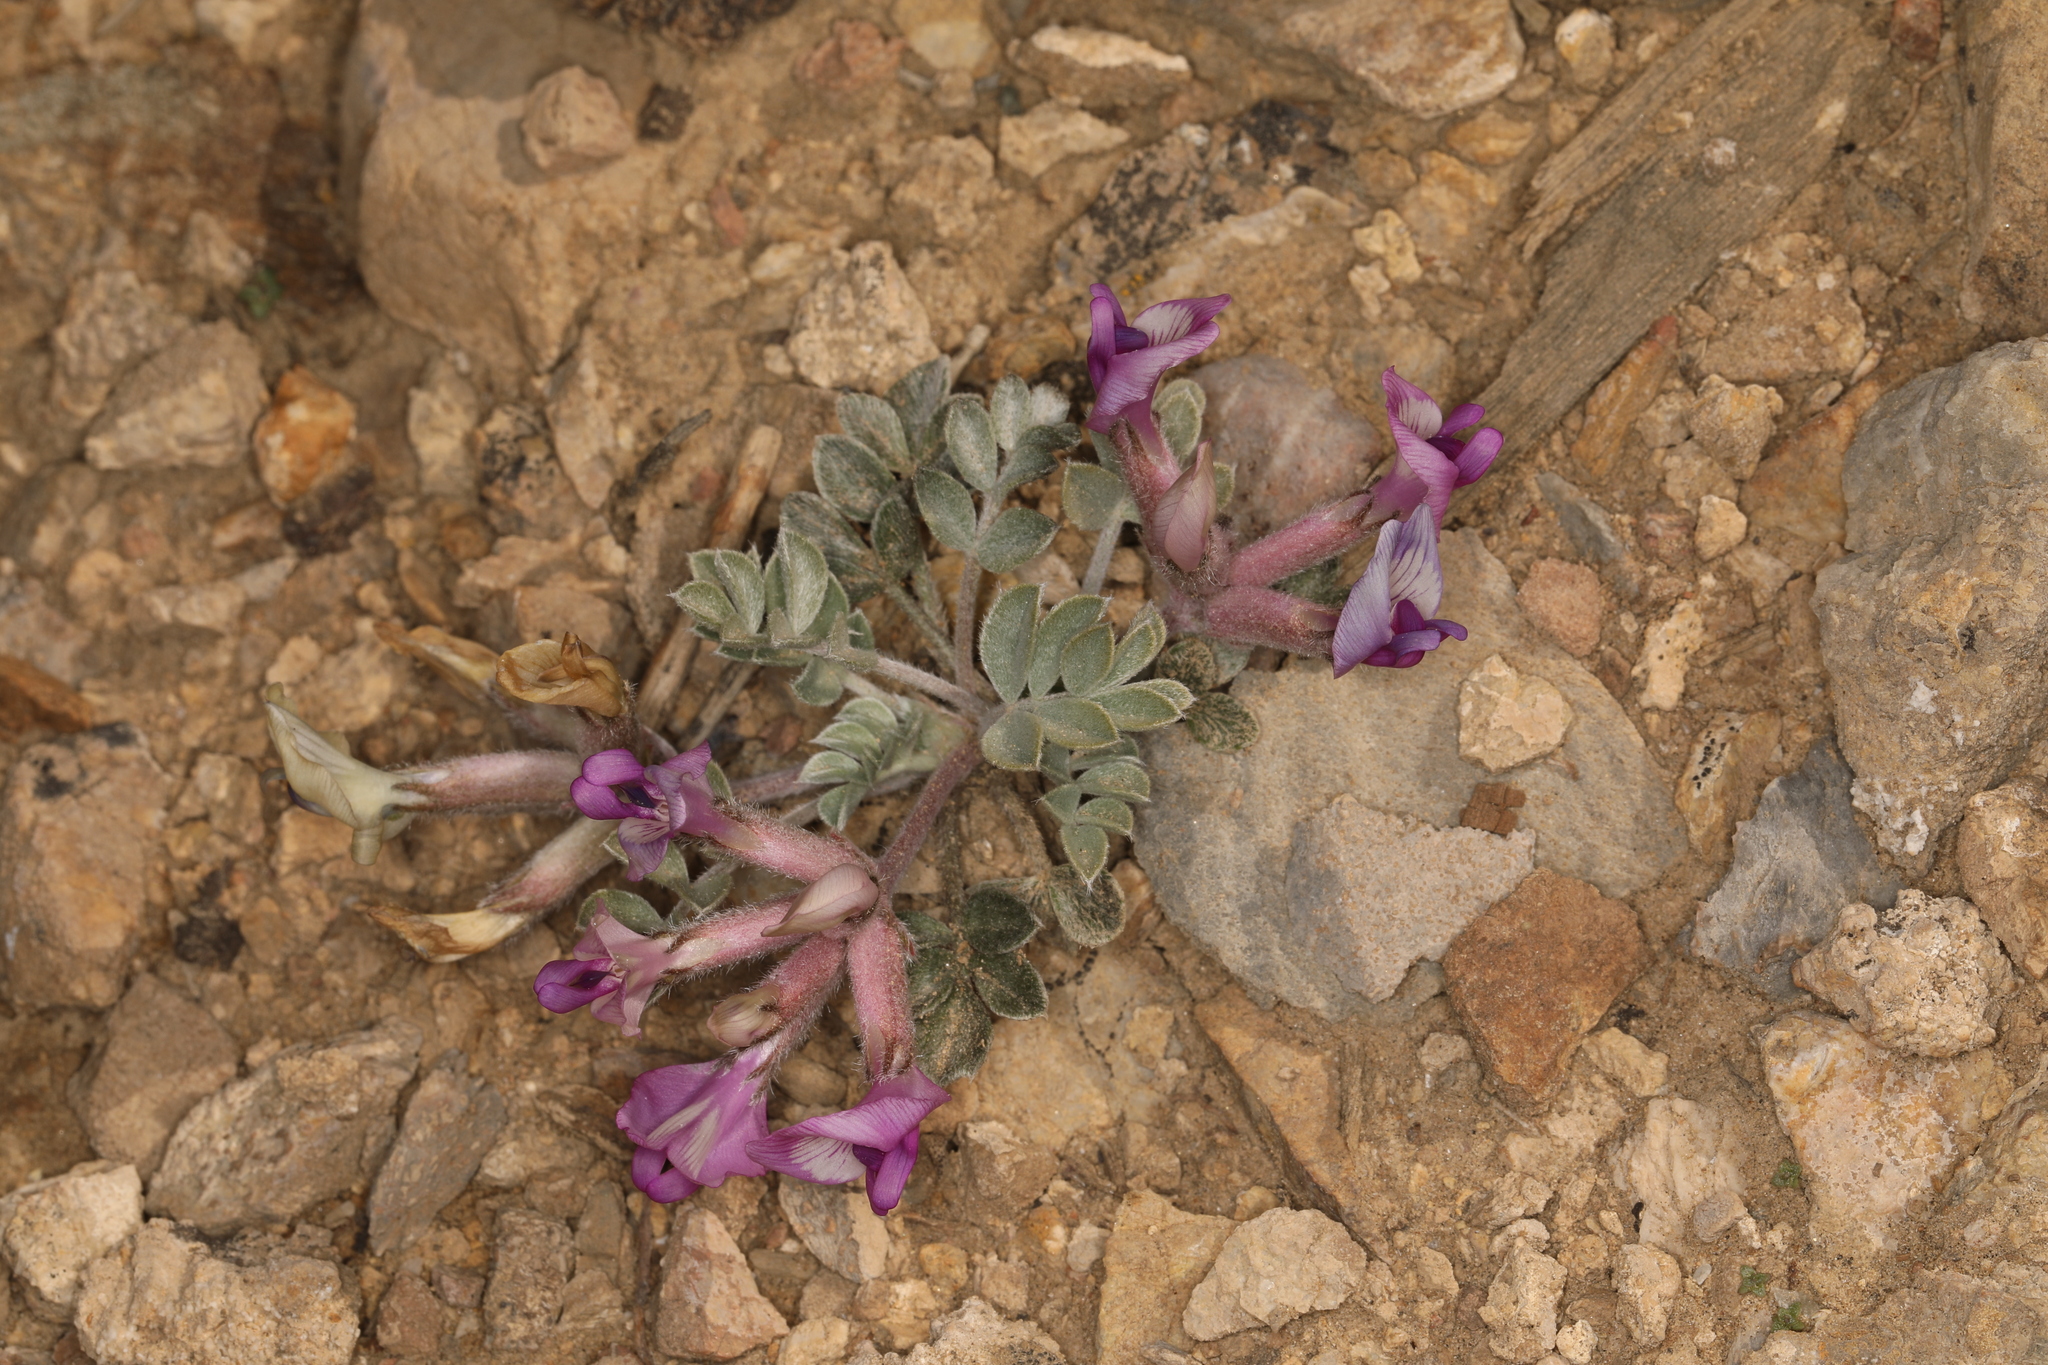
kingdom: Plantae
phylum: Tracheophyta
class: Magnoliopsida
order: Fabales
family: Fabaceae
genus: Astragalus
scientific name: Astragalus newberryi
